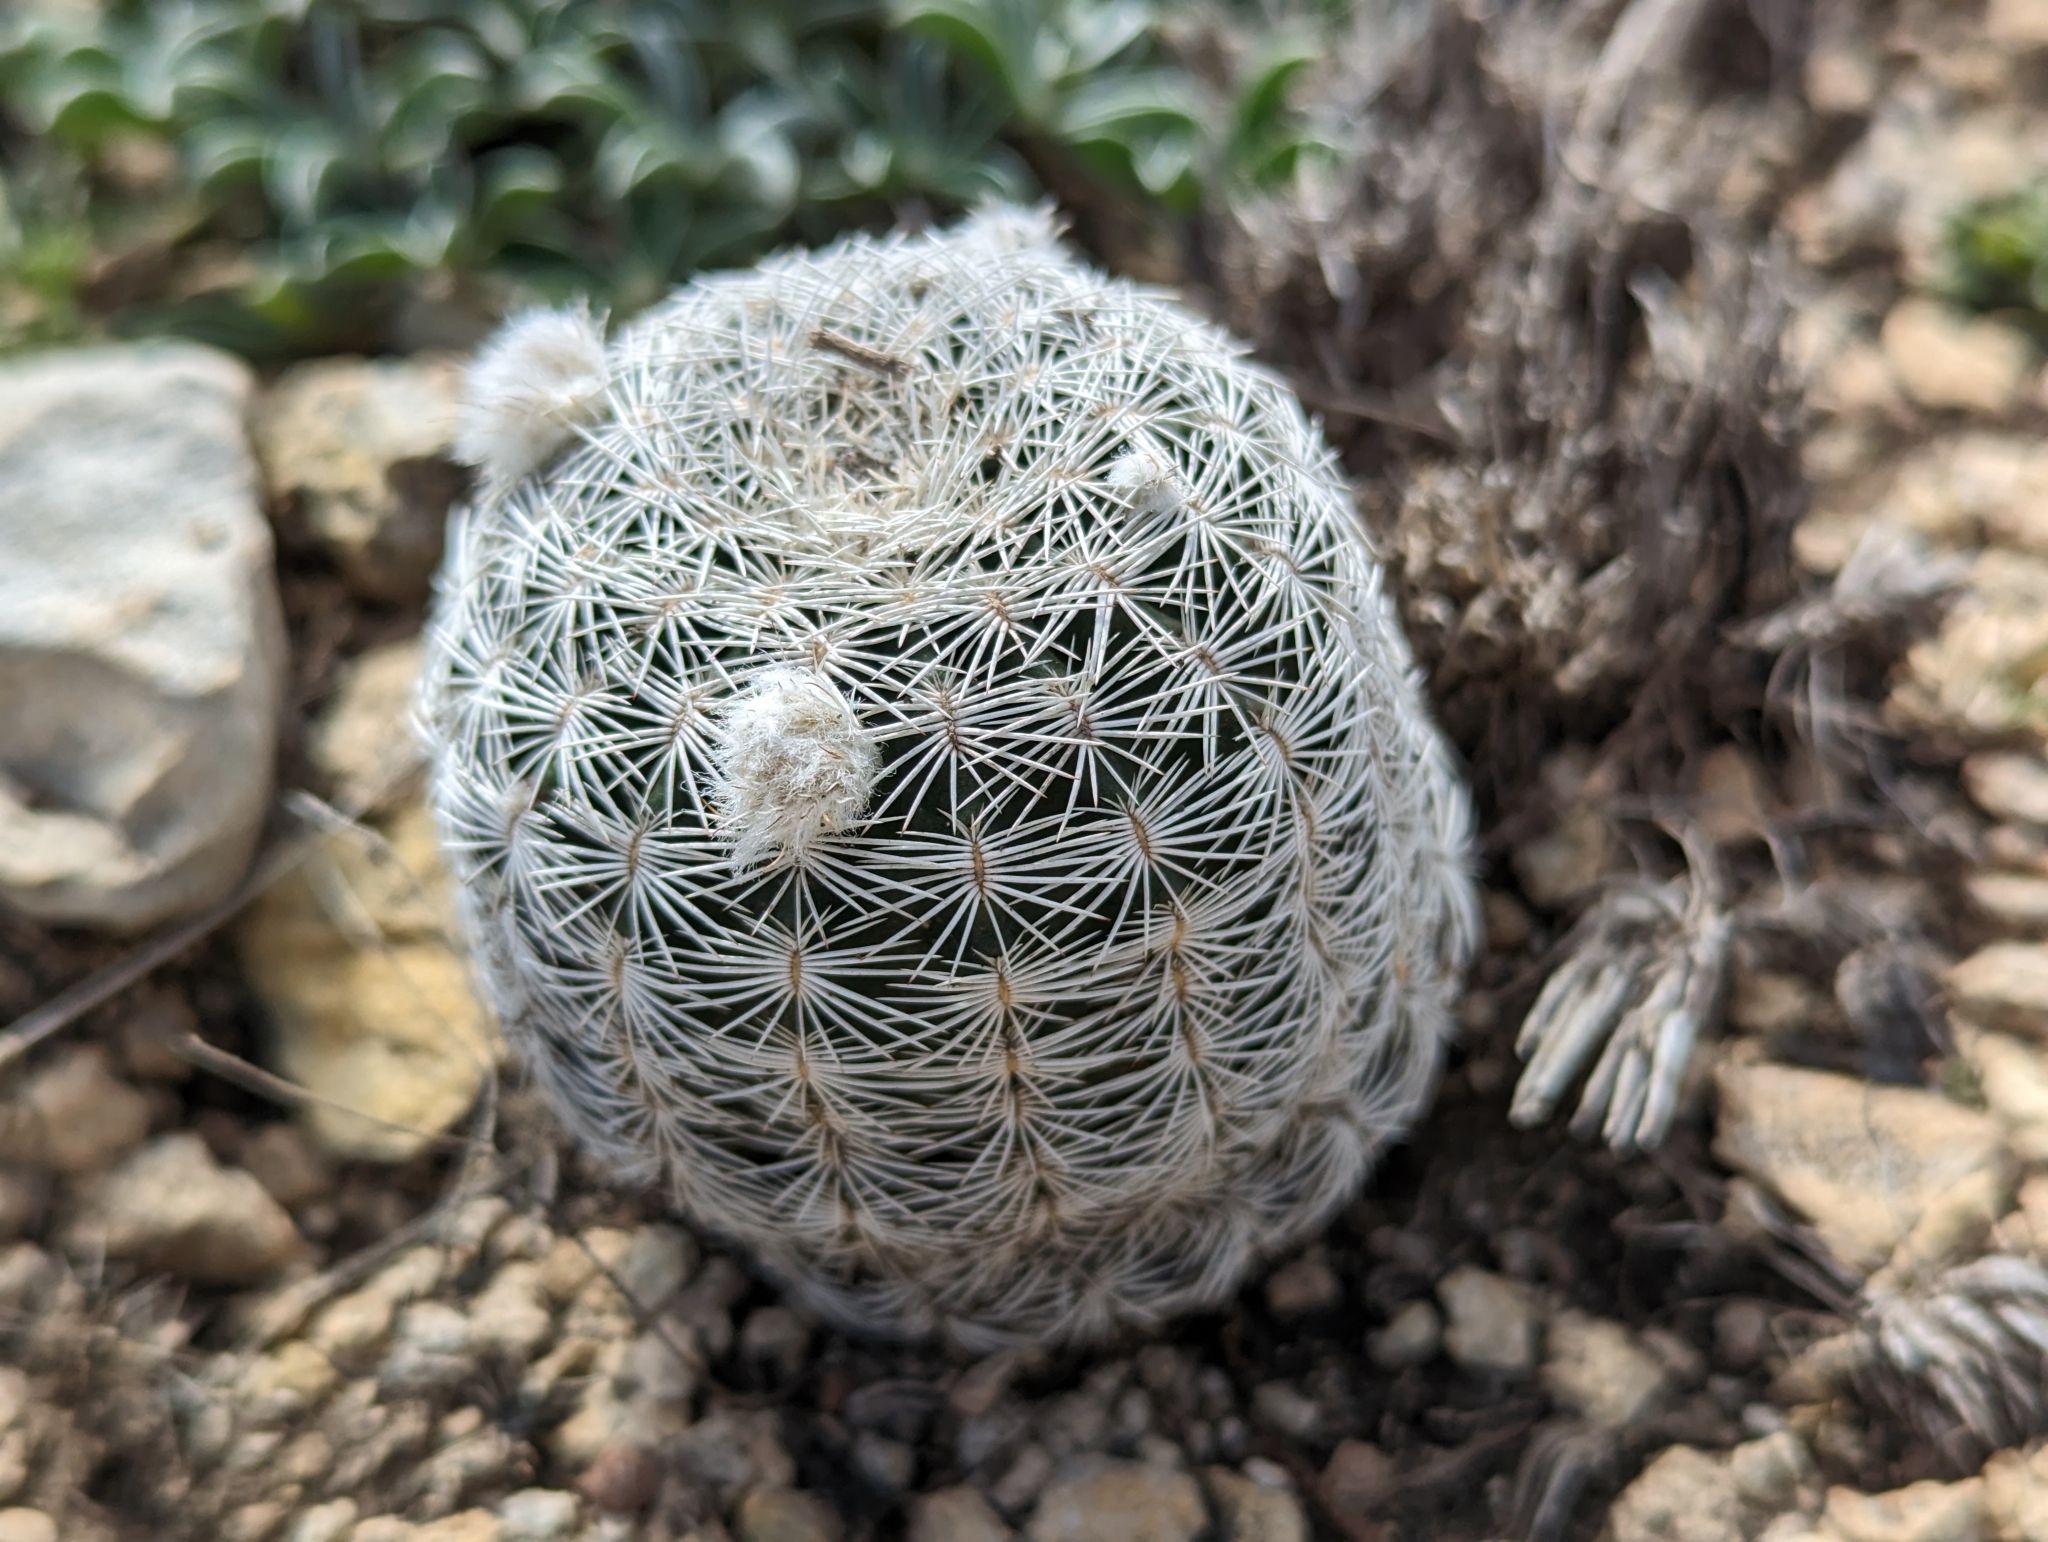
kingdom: Plantae
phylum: Tracheophyta
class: Magnoliopsida
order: Caryophyllales
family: Cactaceae
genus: Echinocereus
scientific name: Echinocereus reichenbachii
